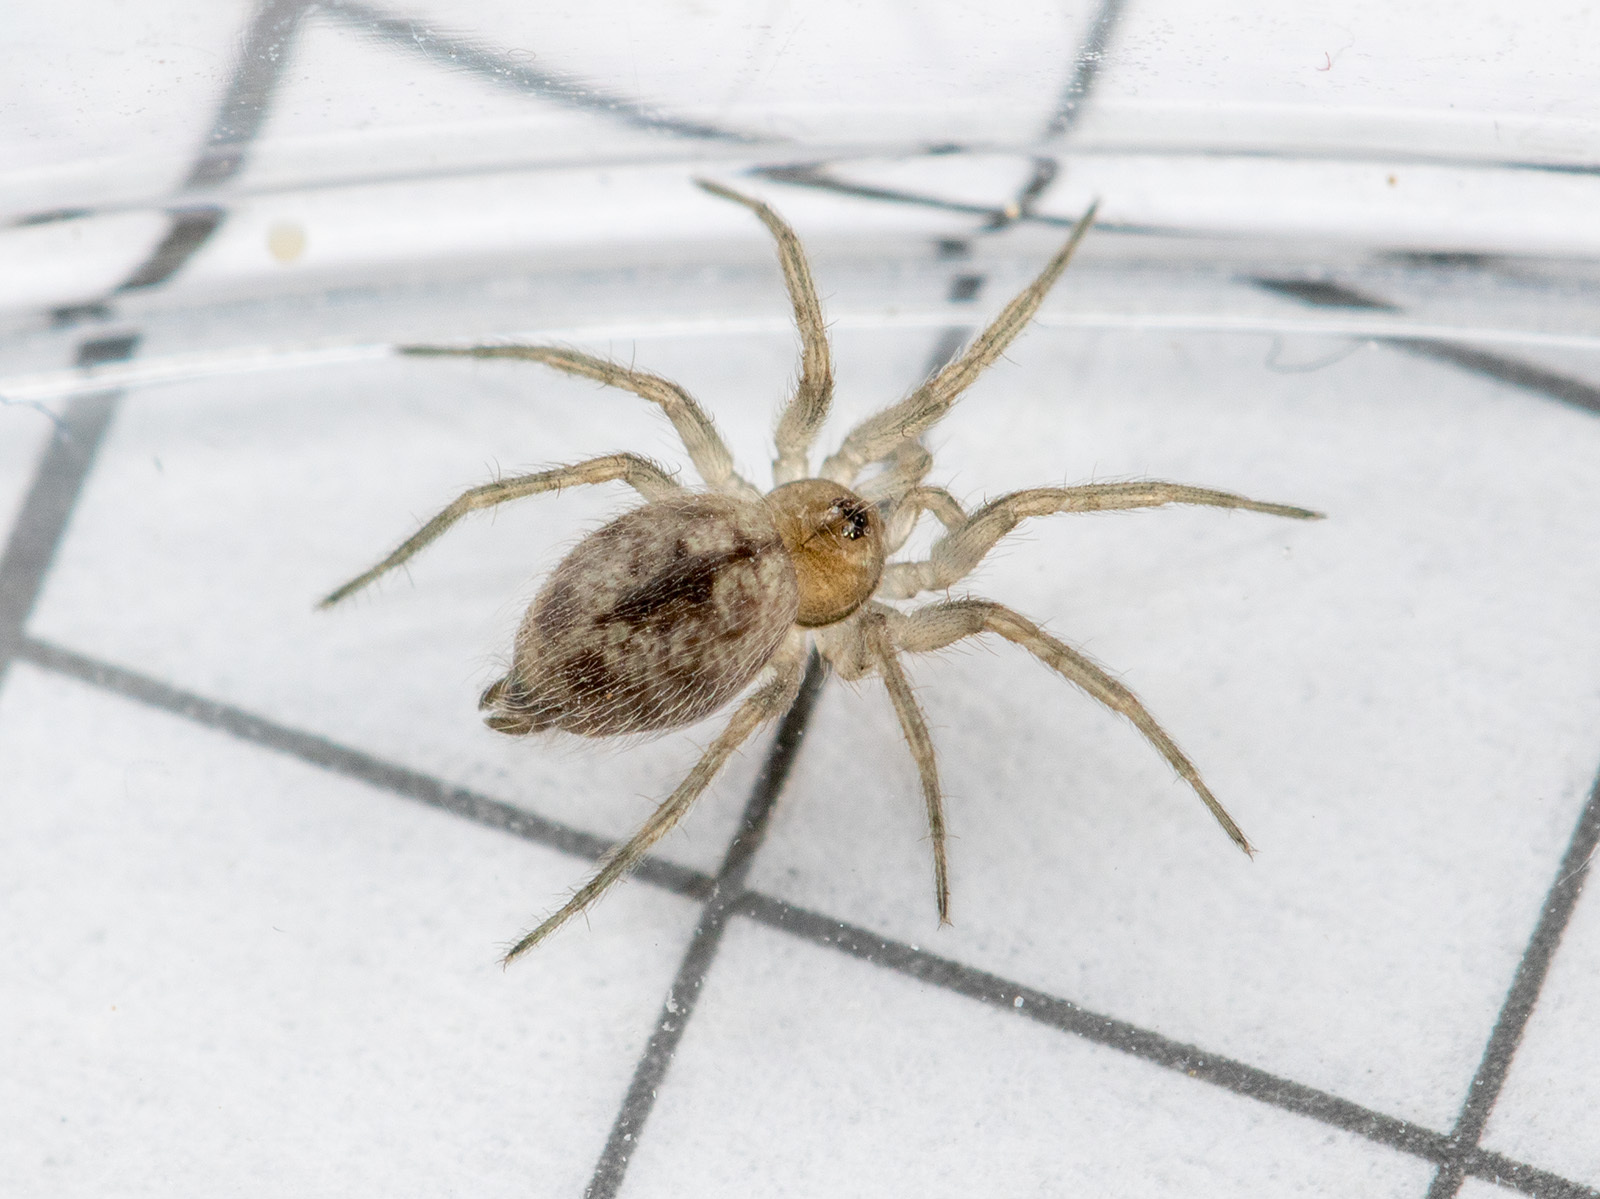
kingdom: Animalia
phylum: Arthropoda
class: Arachnida
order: Araneae
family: Oecobiidae
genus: Oecobius
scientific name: Oecobius nadiae
